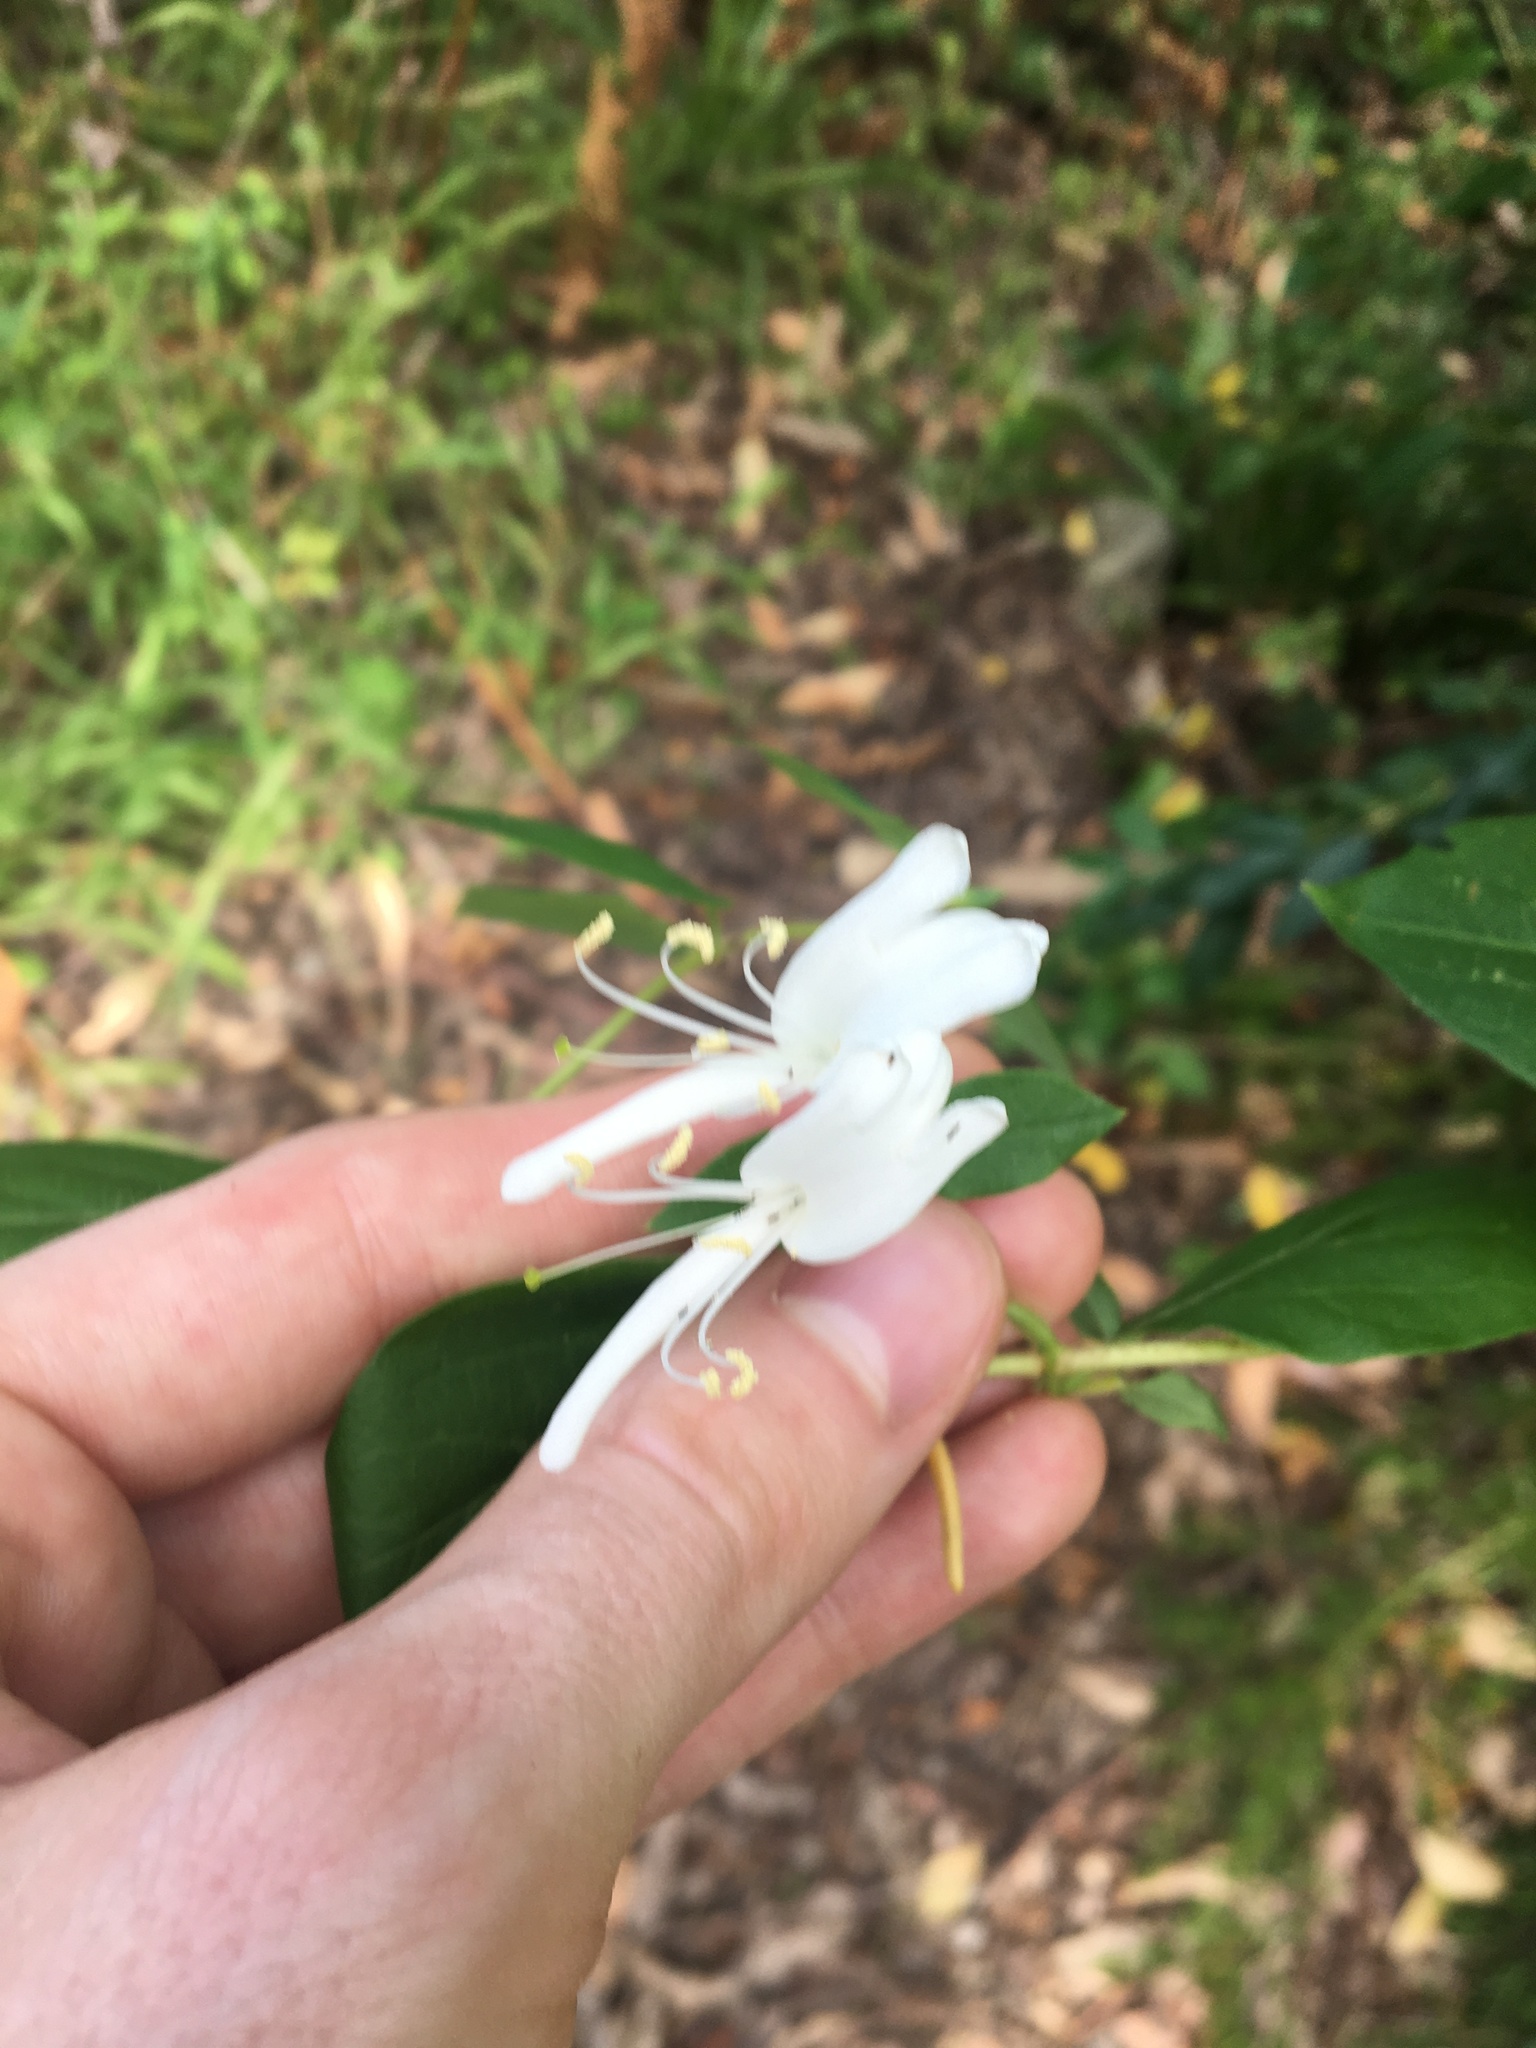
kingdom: Plantae
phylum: Tracheophyta
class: Magnoliopsida
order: Dipsacales
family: Caprifoliaceae
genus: Lonicera
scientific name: Lonicera japonica
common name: Japanese honeysuckle
